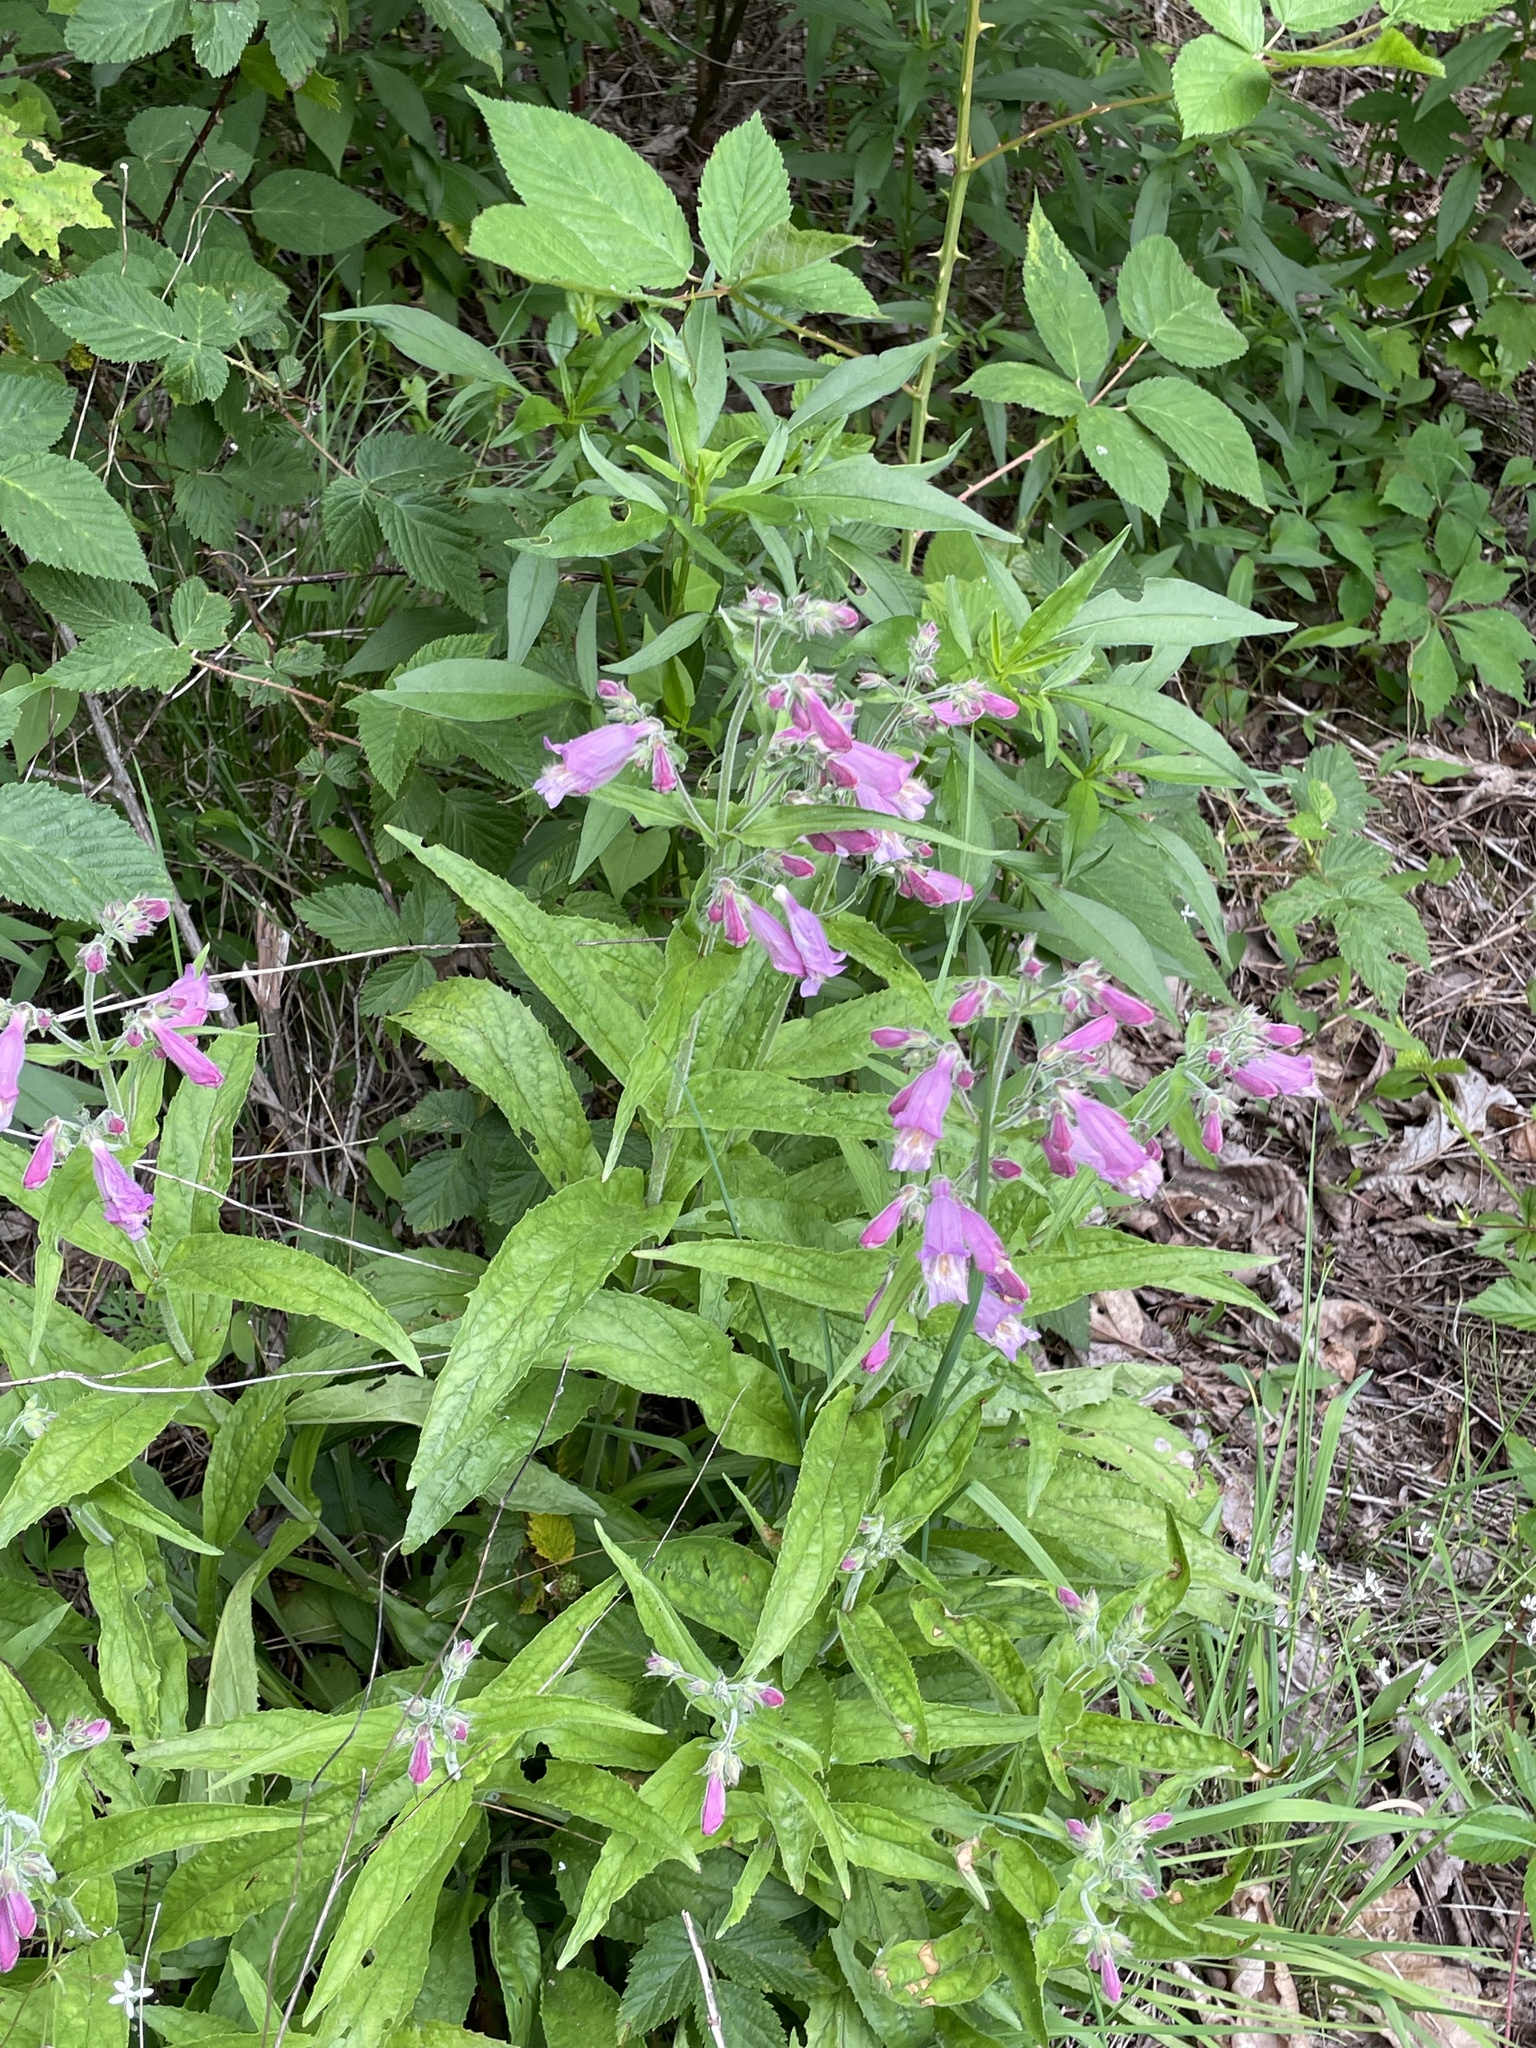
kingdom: Plantae
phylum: Tracheophyta
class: Magnoliopsida
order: Lamiales
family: Plantaginaceae
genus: Penstemon
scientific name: Penstemon smallii
